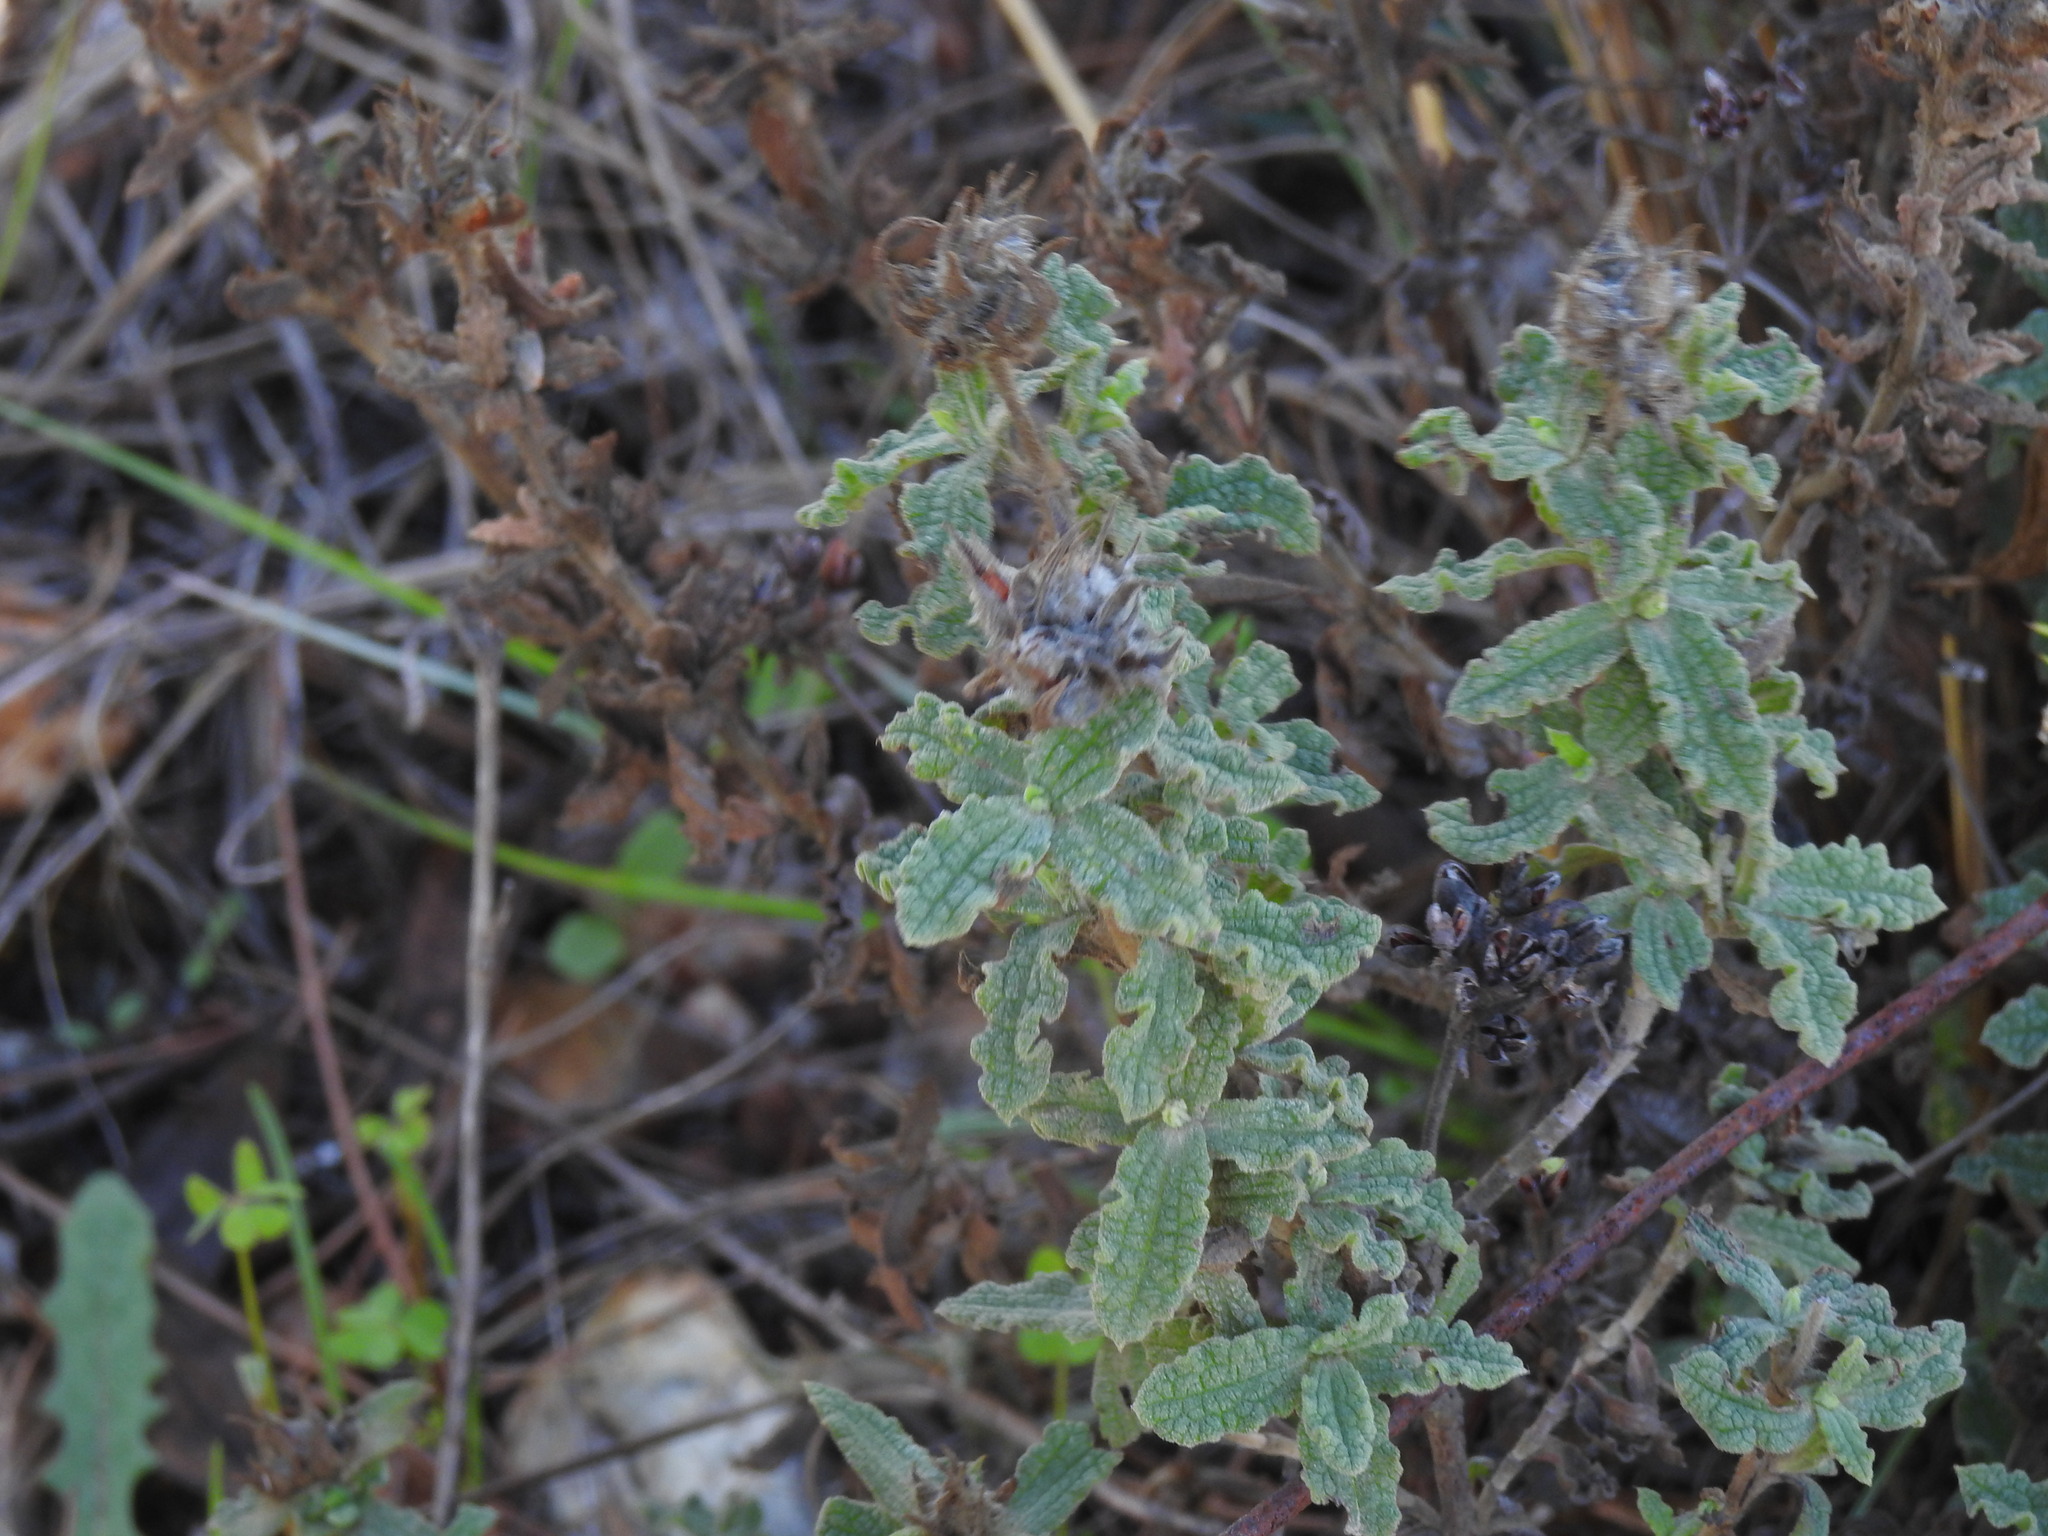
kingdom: Plantae
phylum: Tracheophyta
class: Magnoliopsida
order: Malvales
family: Cistaceae
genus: Cistus
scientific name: Cistus crispus
